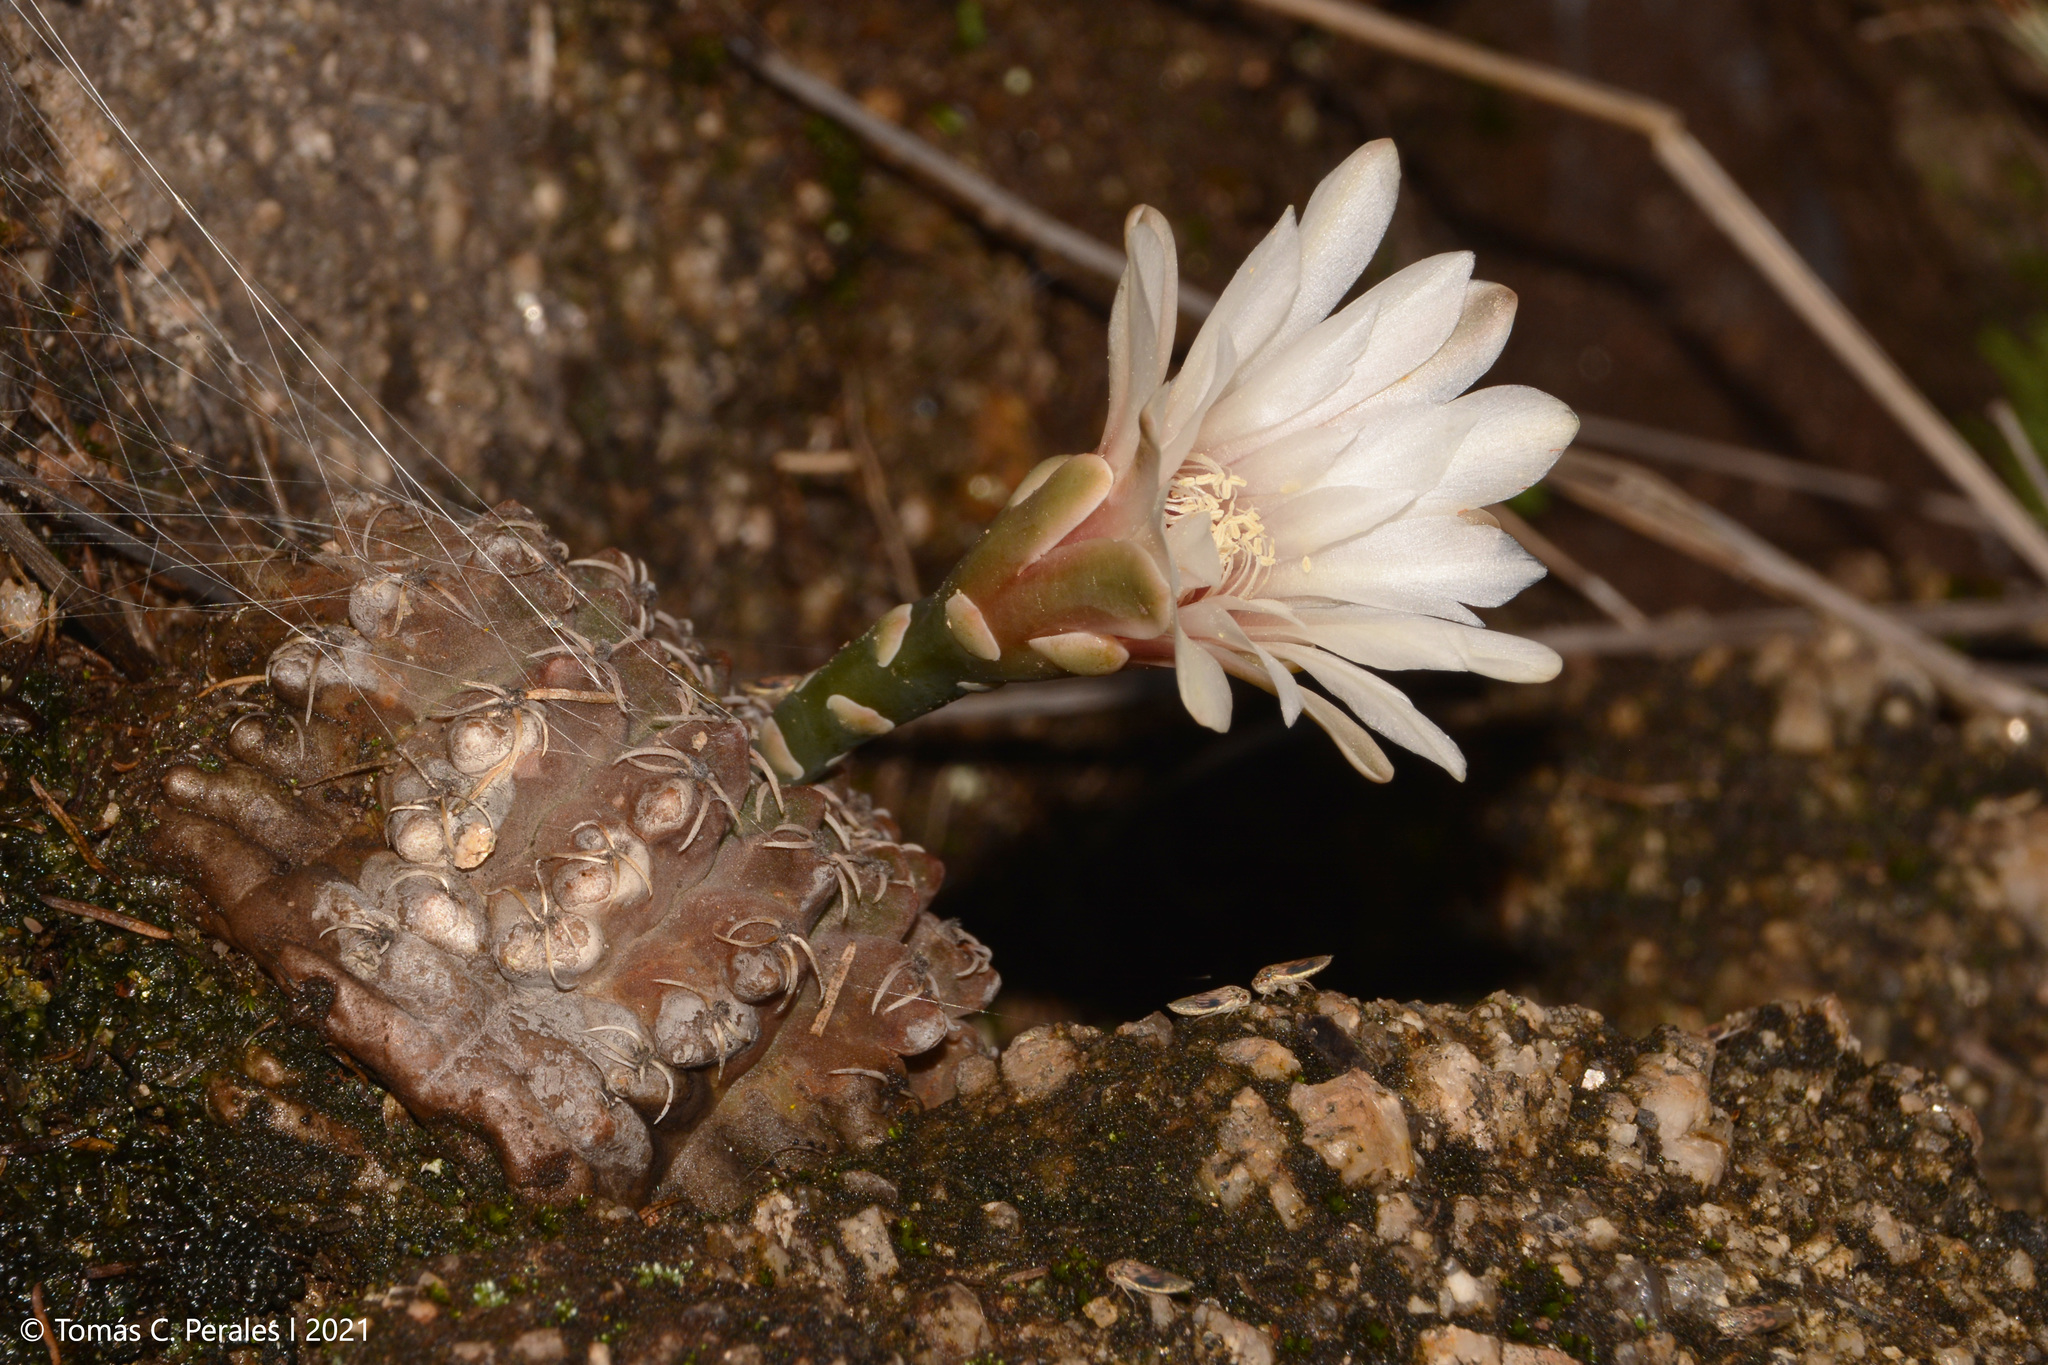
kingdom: Plantae
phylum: Tracheophyta
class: Magnoliopsida
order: Caryophyllales
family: Cactaceae
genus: Gymnocalycium
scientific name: Gymnocalycium quehlianum
